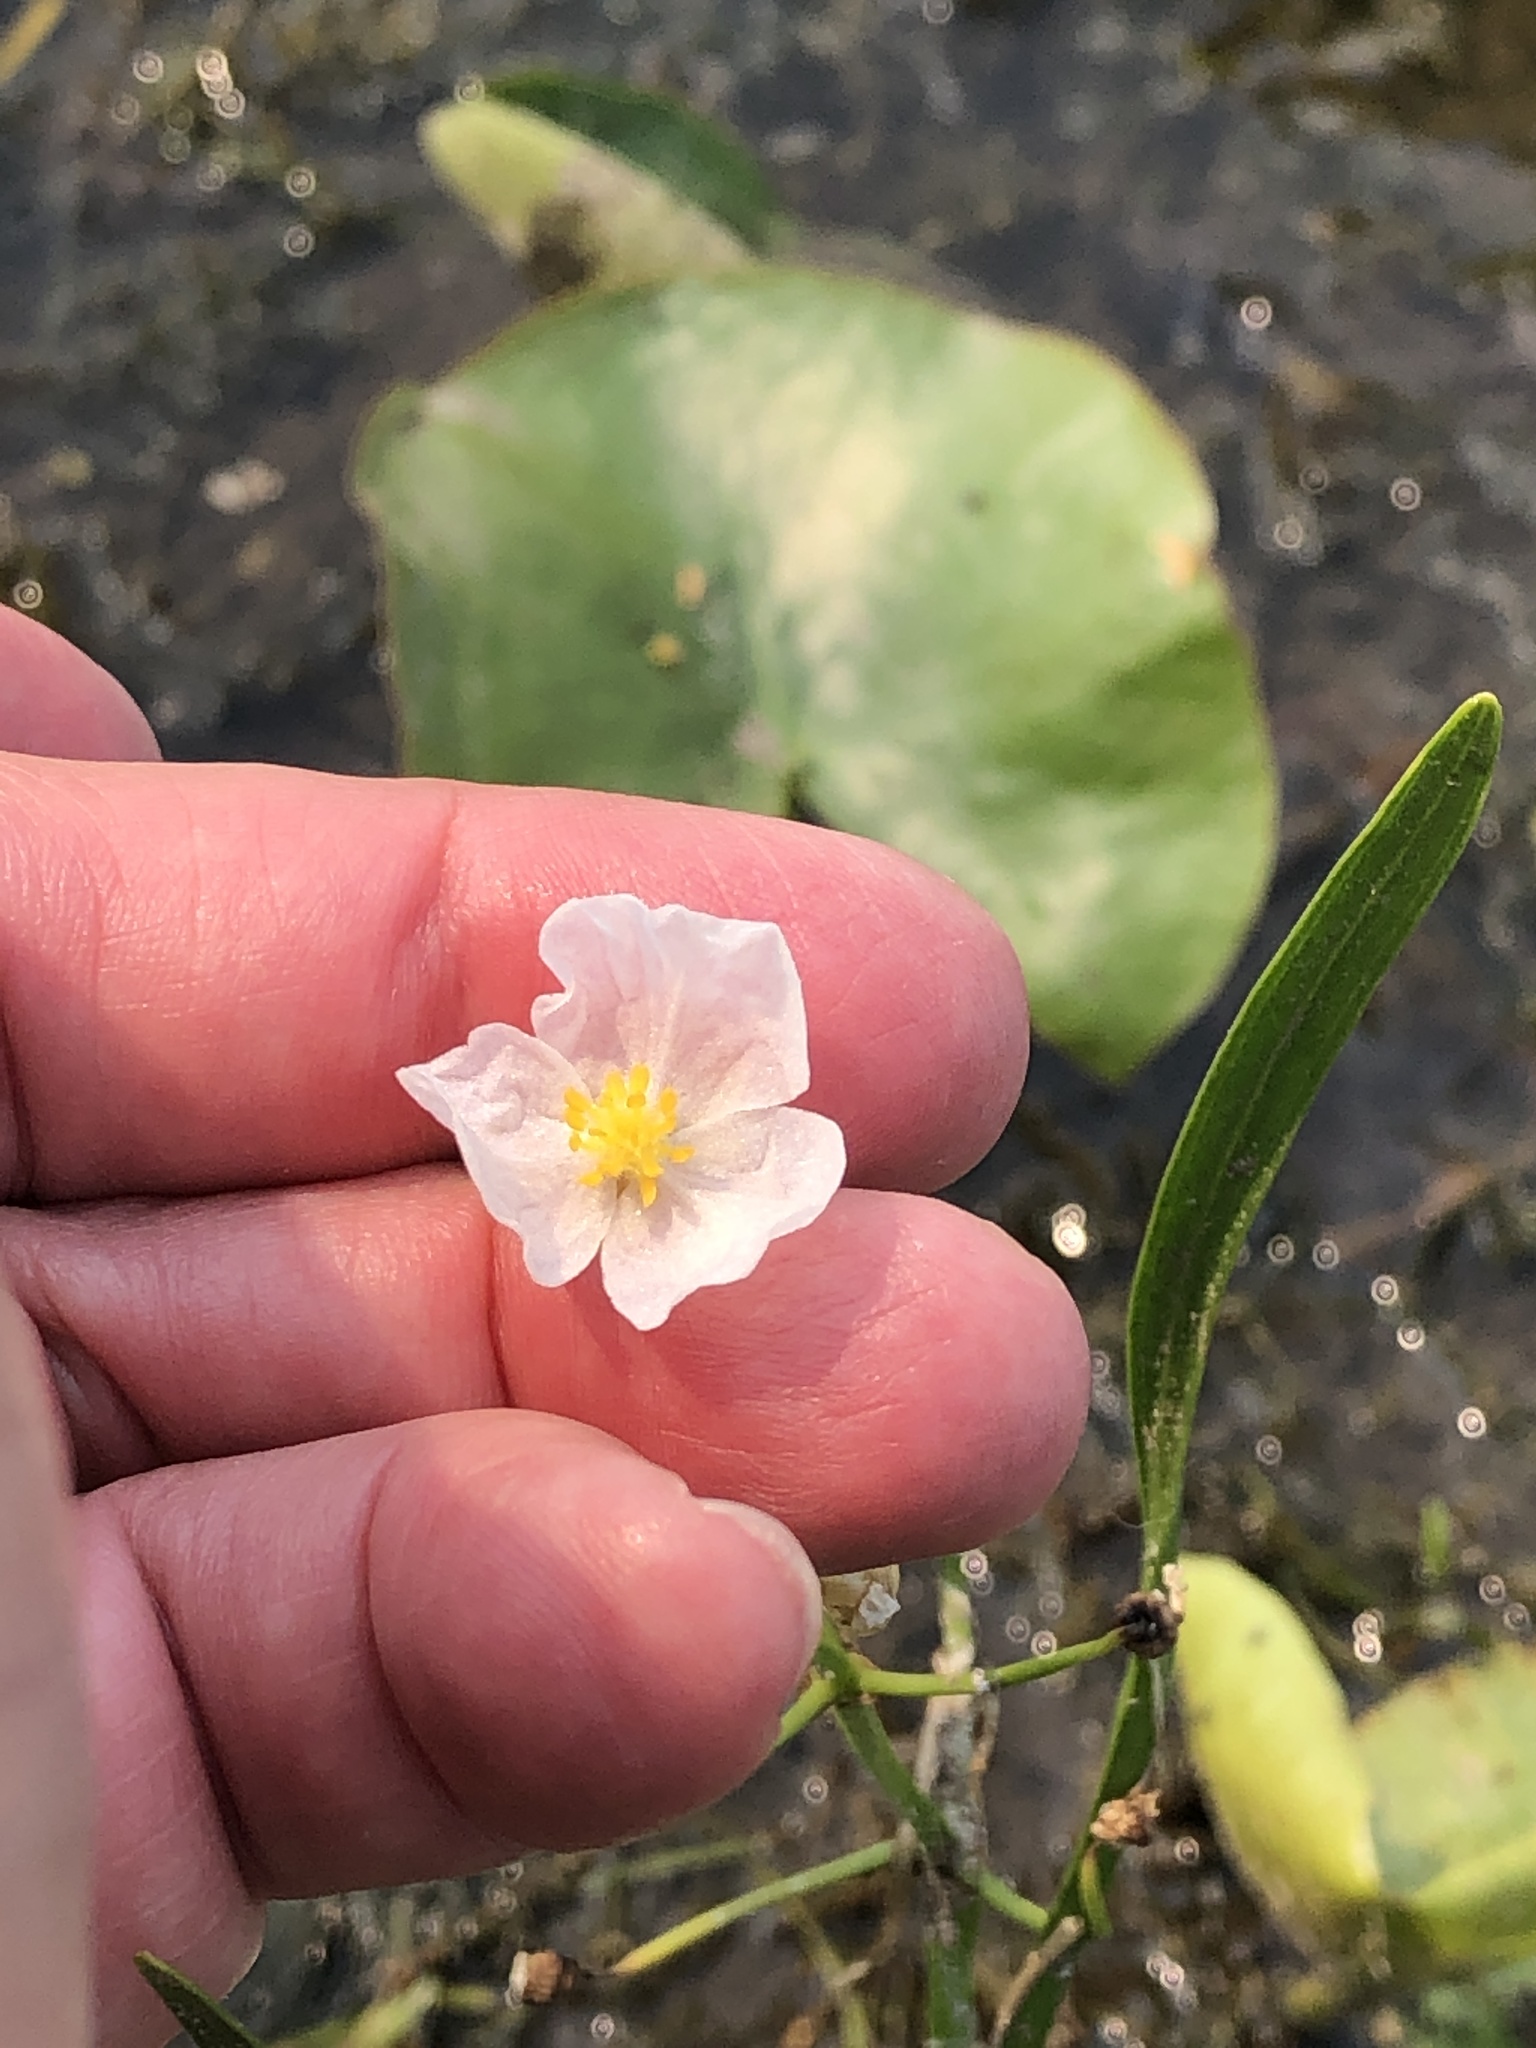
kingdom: Plantae
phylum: Tracheophyta
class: Liliopsida
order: Alismatales
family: Alismataceae
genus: Sagittaria
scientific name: Sagittaria cristata
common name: Crested arrowhead
